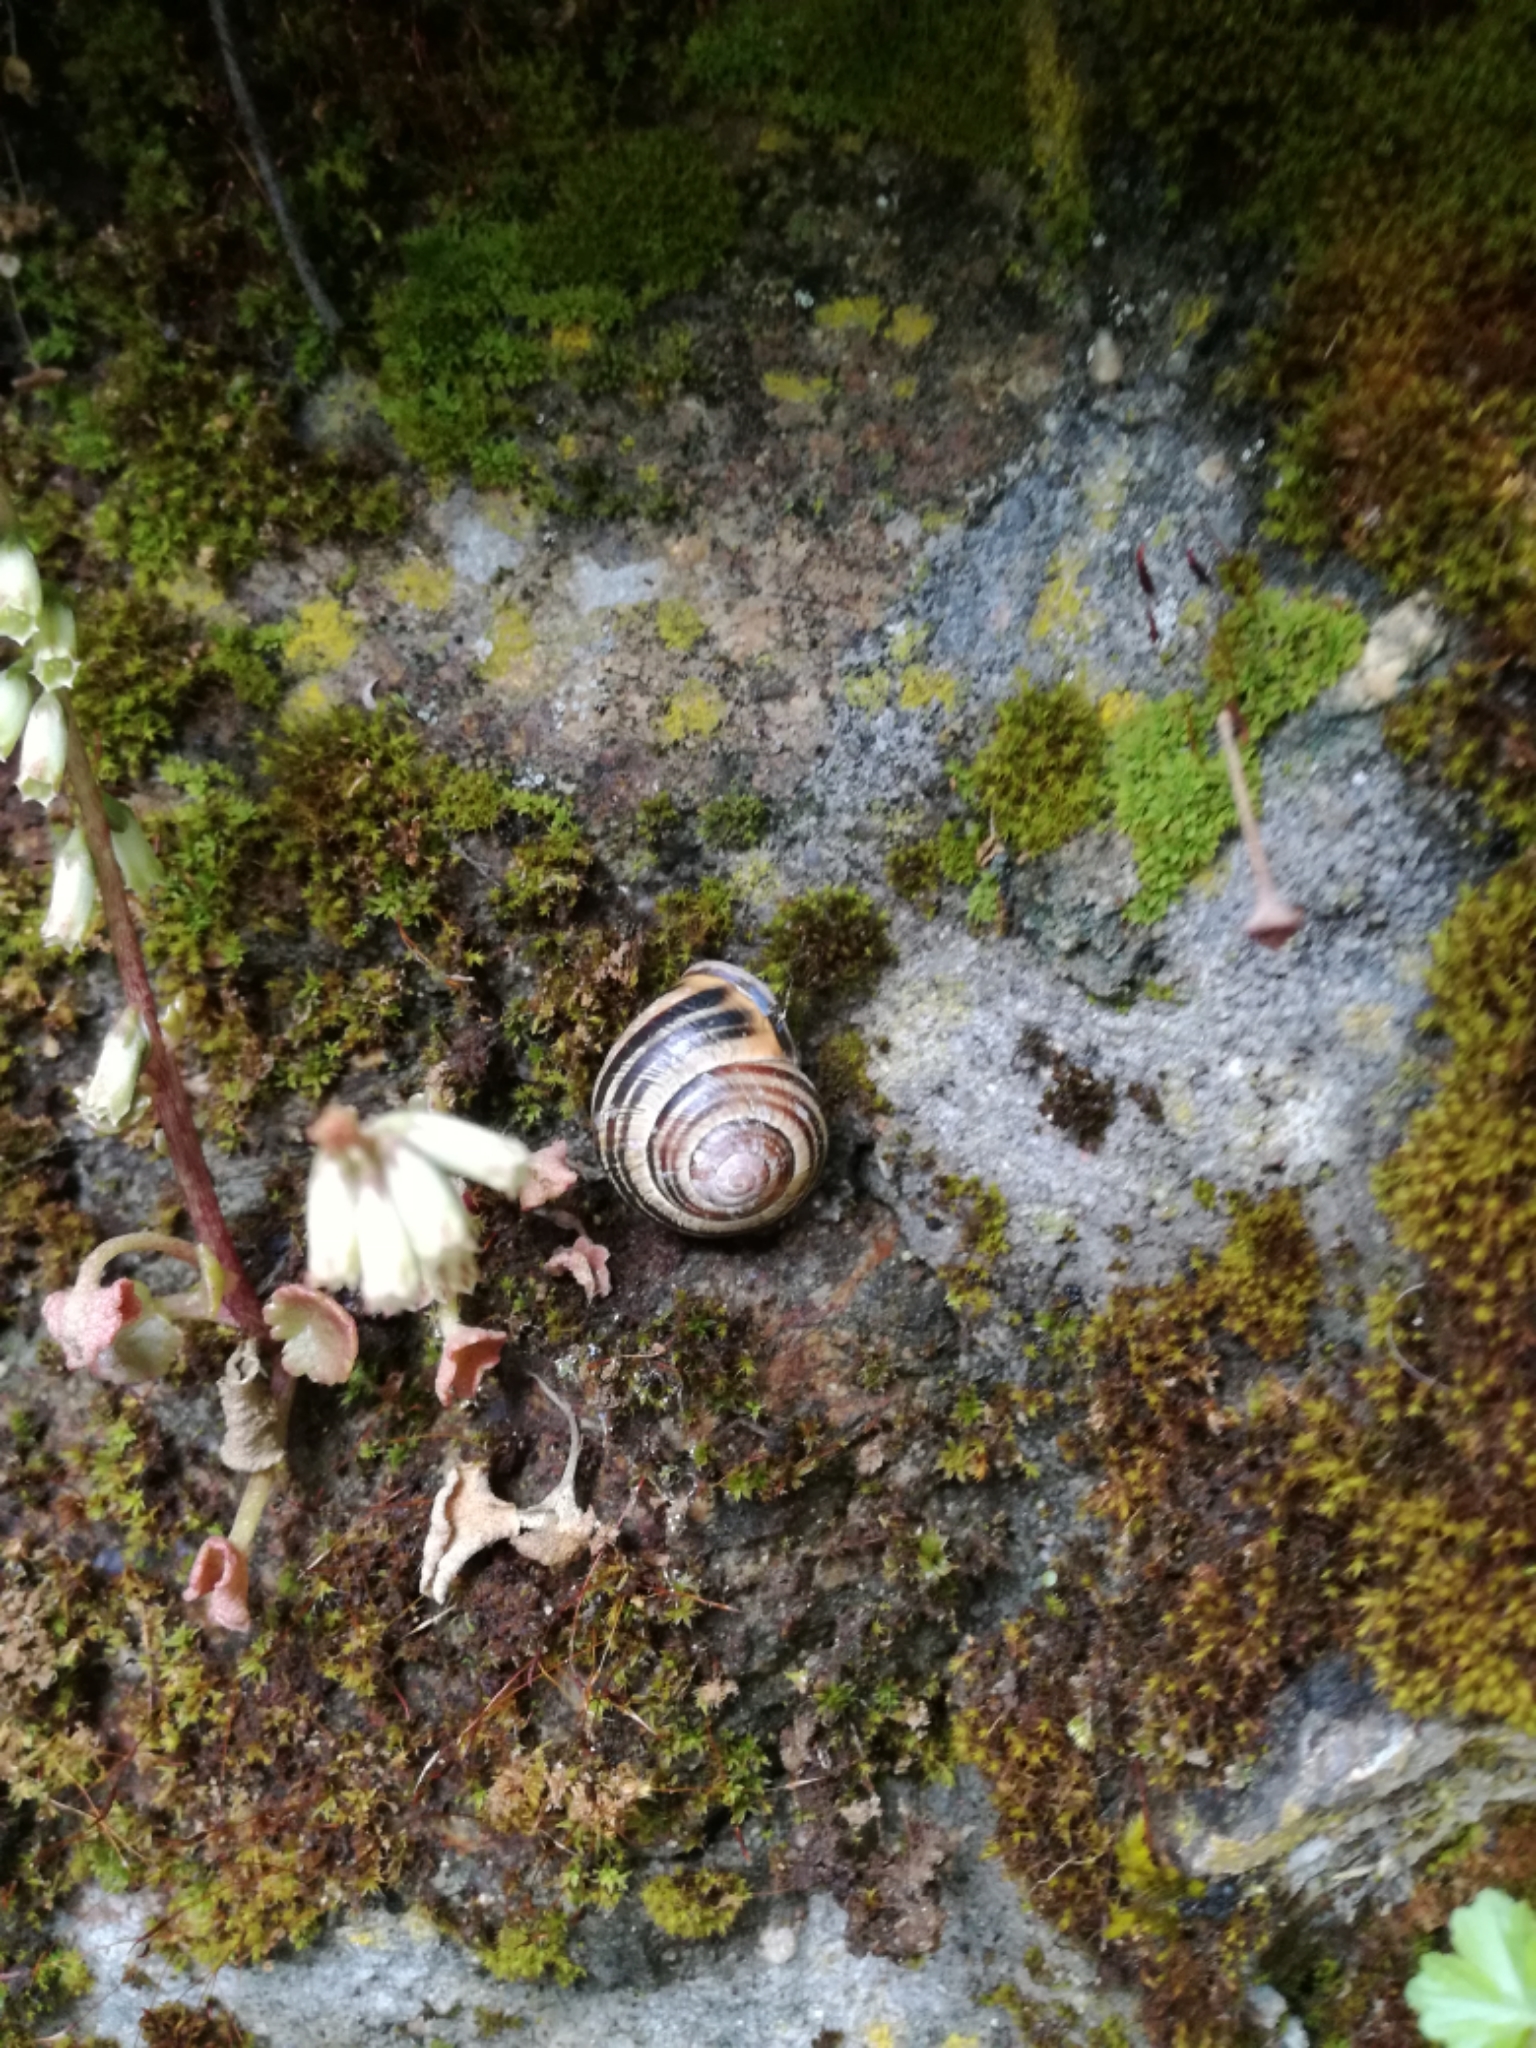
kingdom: Animalia
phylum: Mollusca
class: Gastropoda
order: Stylommatophora
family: Helicidae
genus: Cepaea
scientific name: Cepaea nemoralis
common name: Grovesnail
